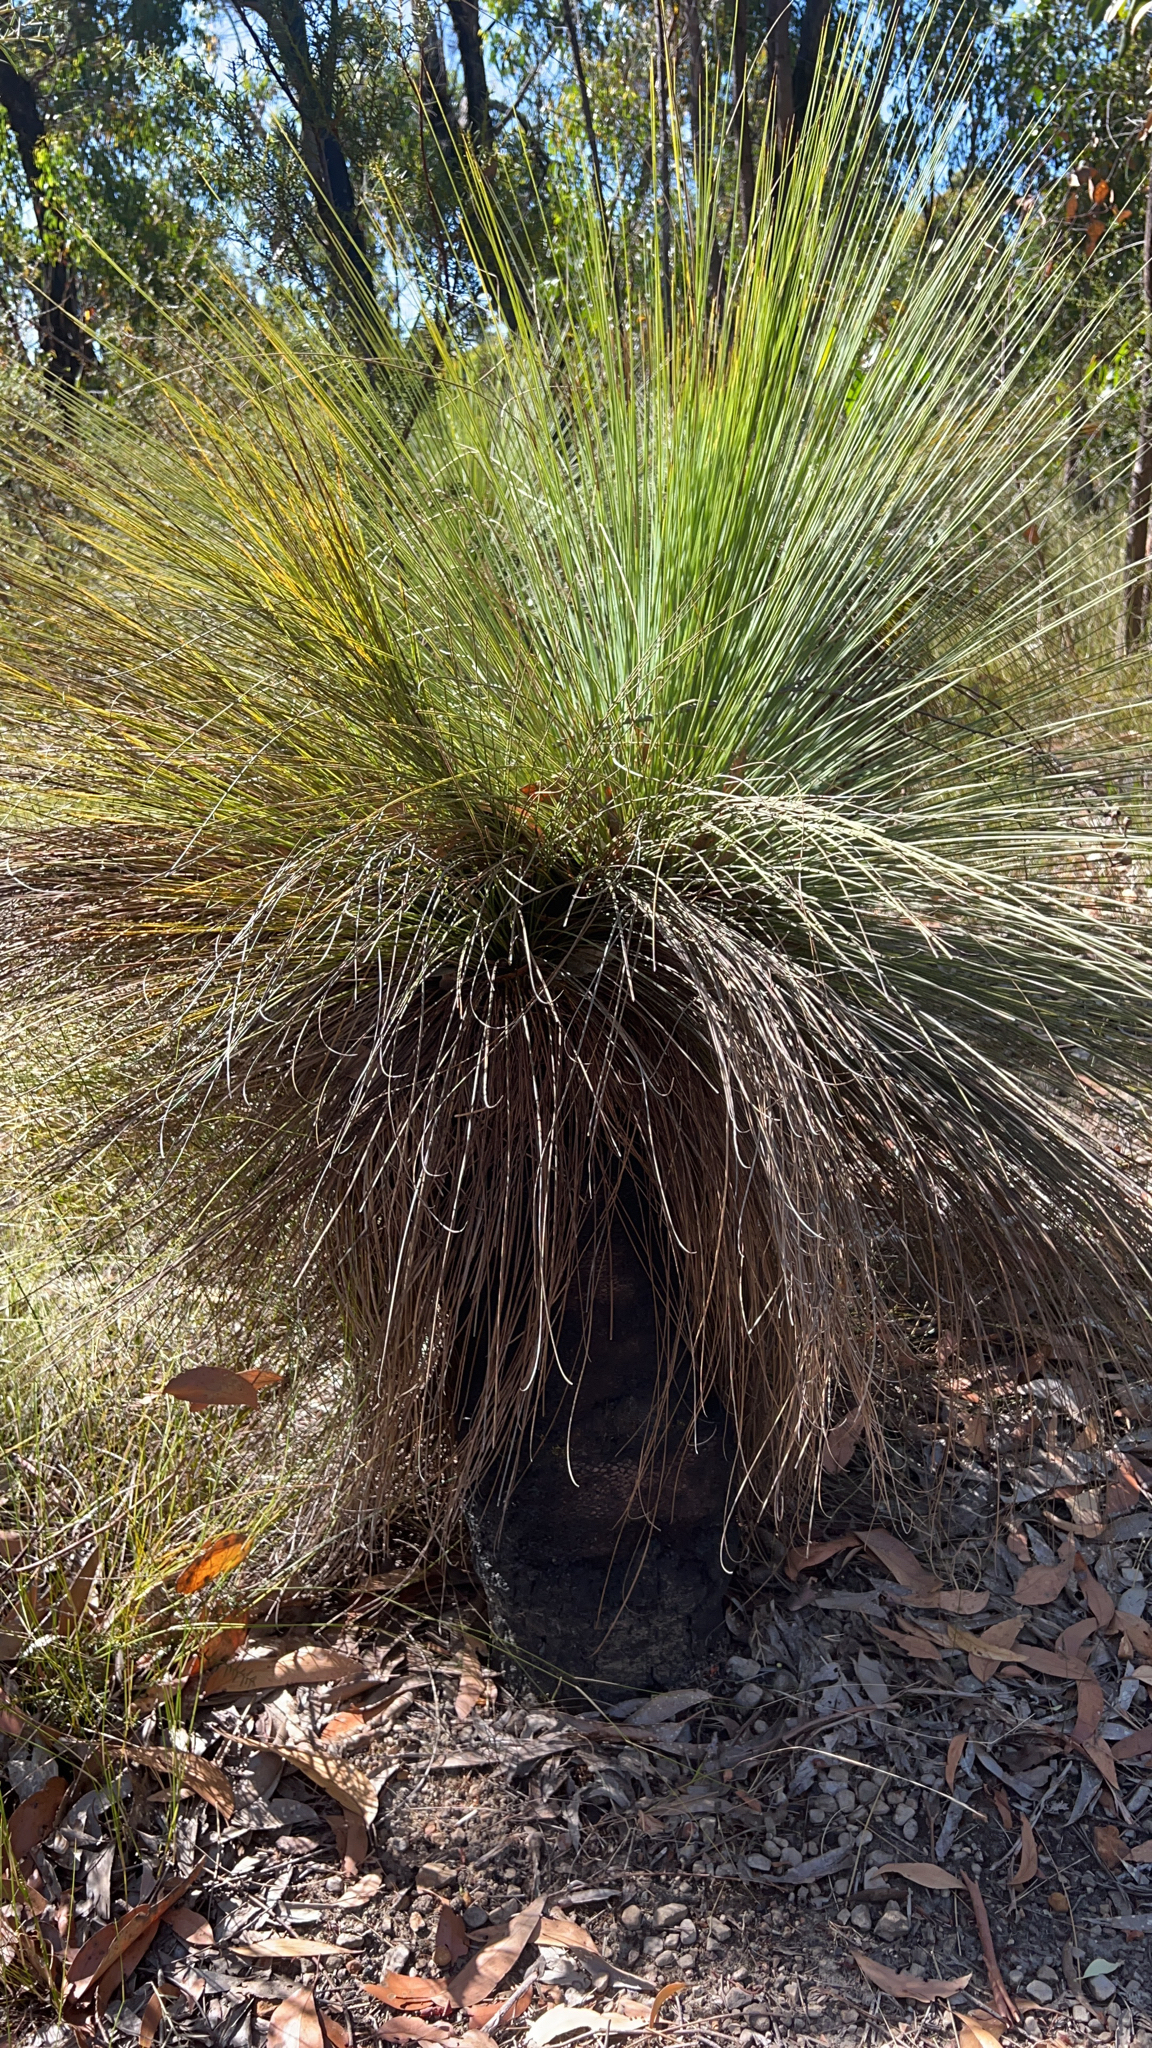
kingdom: Plantae
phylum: Tracheophyta
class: Liliopsida
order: Asparagales
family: Asphodelaceae
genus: Xanthorrhoea
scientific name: Xanthorrhoea australis
